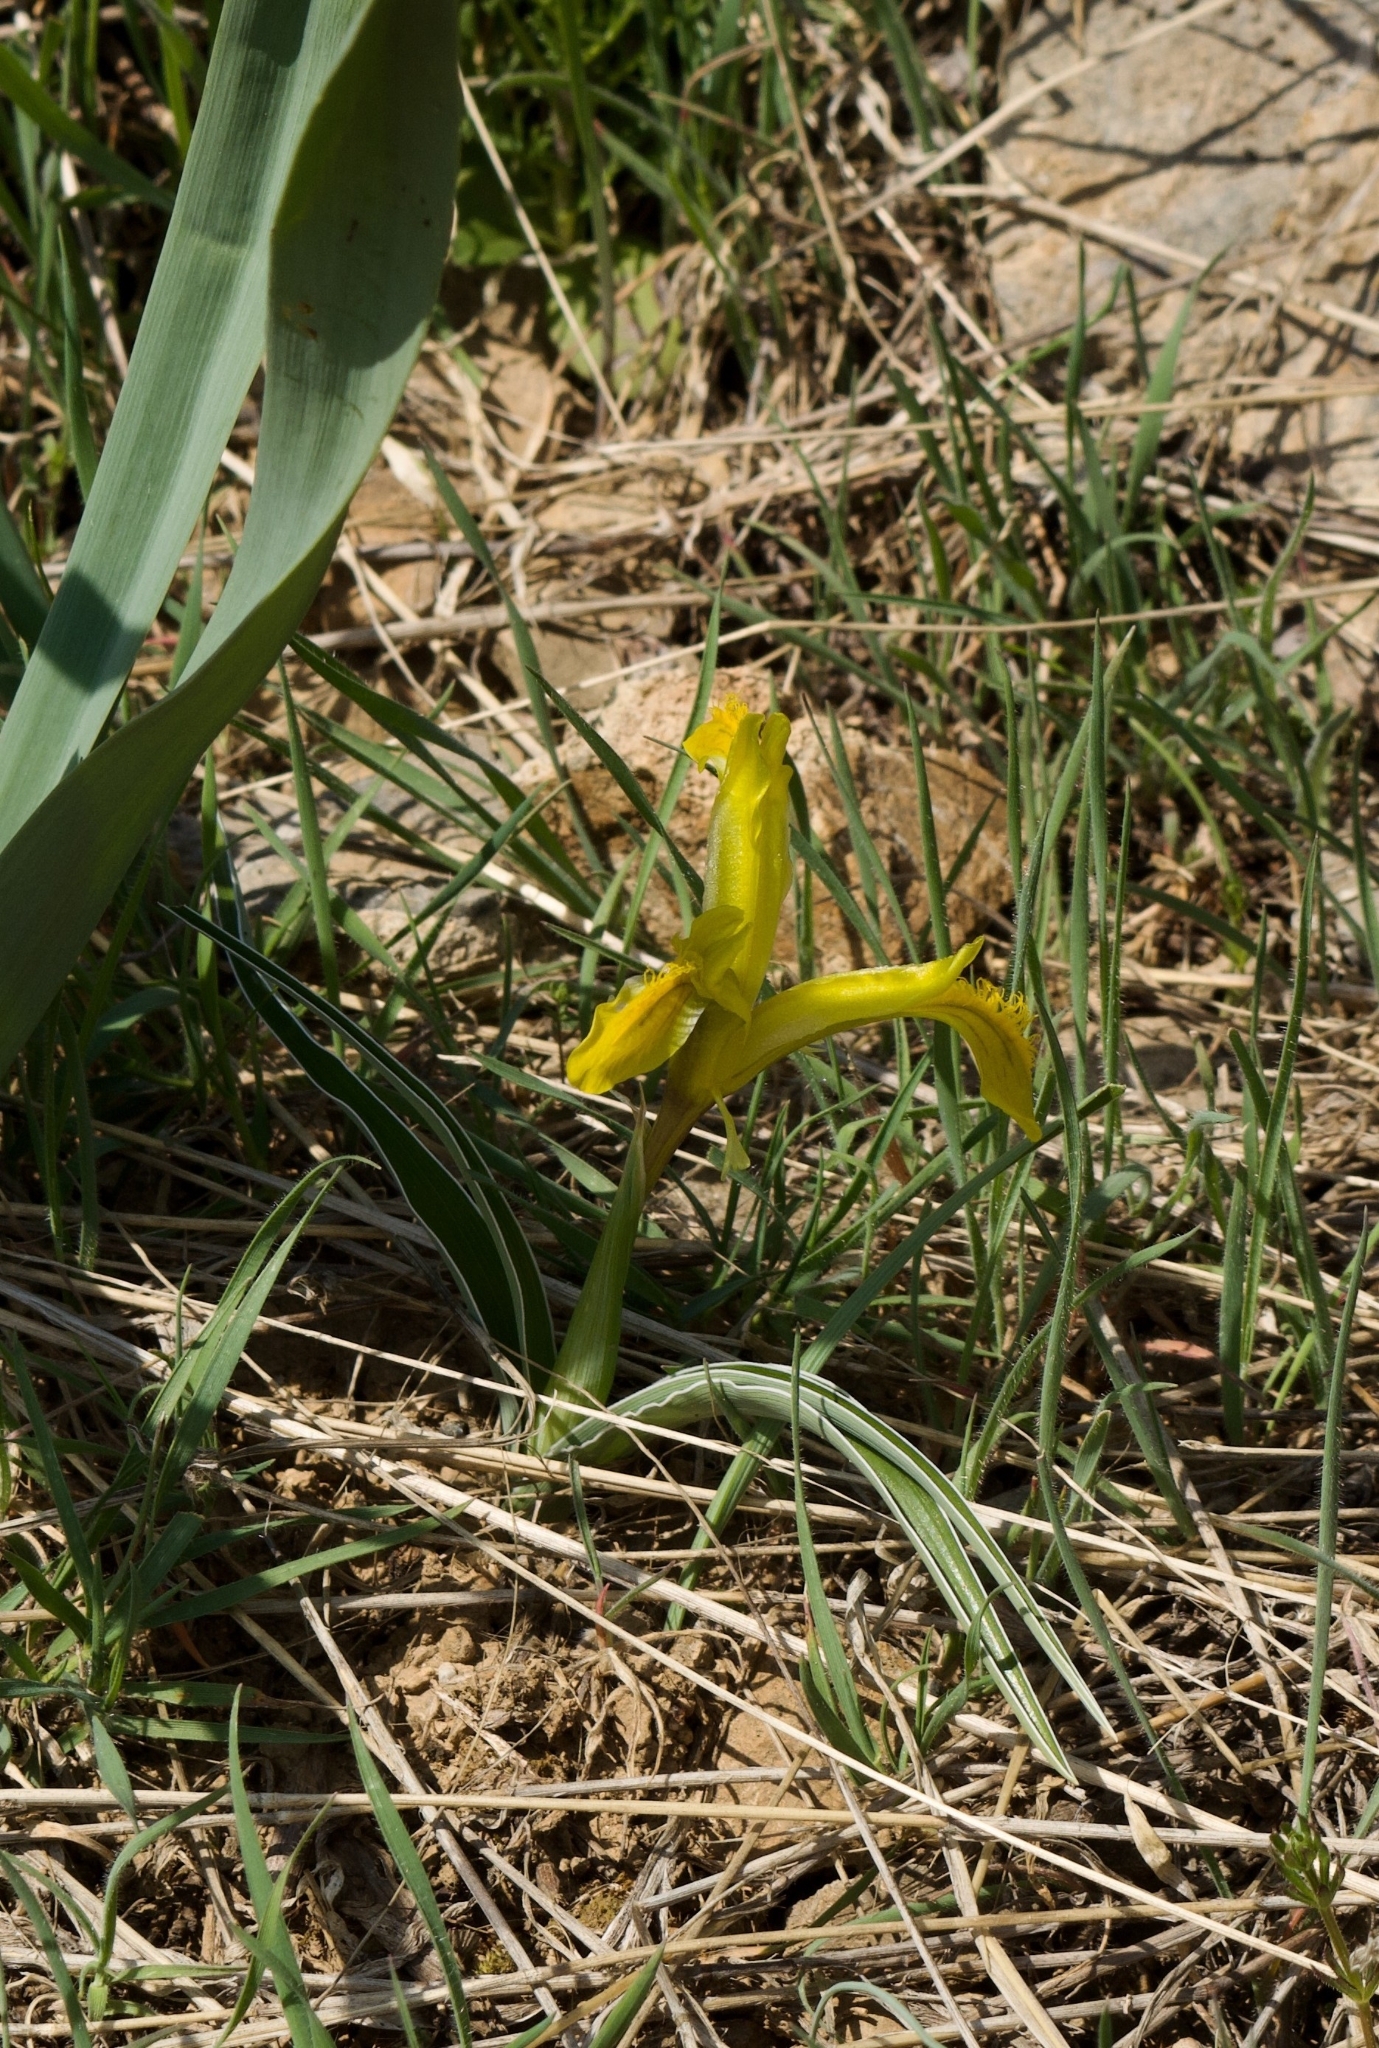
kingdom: Plantae
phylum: Tracheophyta
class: Liliopsida
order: Asparagales
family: Iridaceae
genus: Iris
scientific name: Iris tubergeniana
